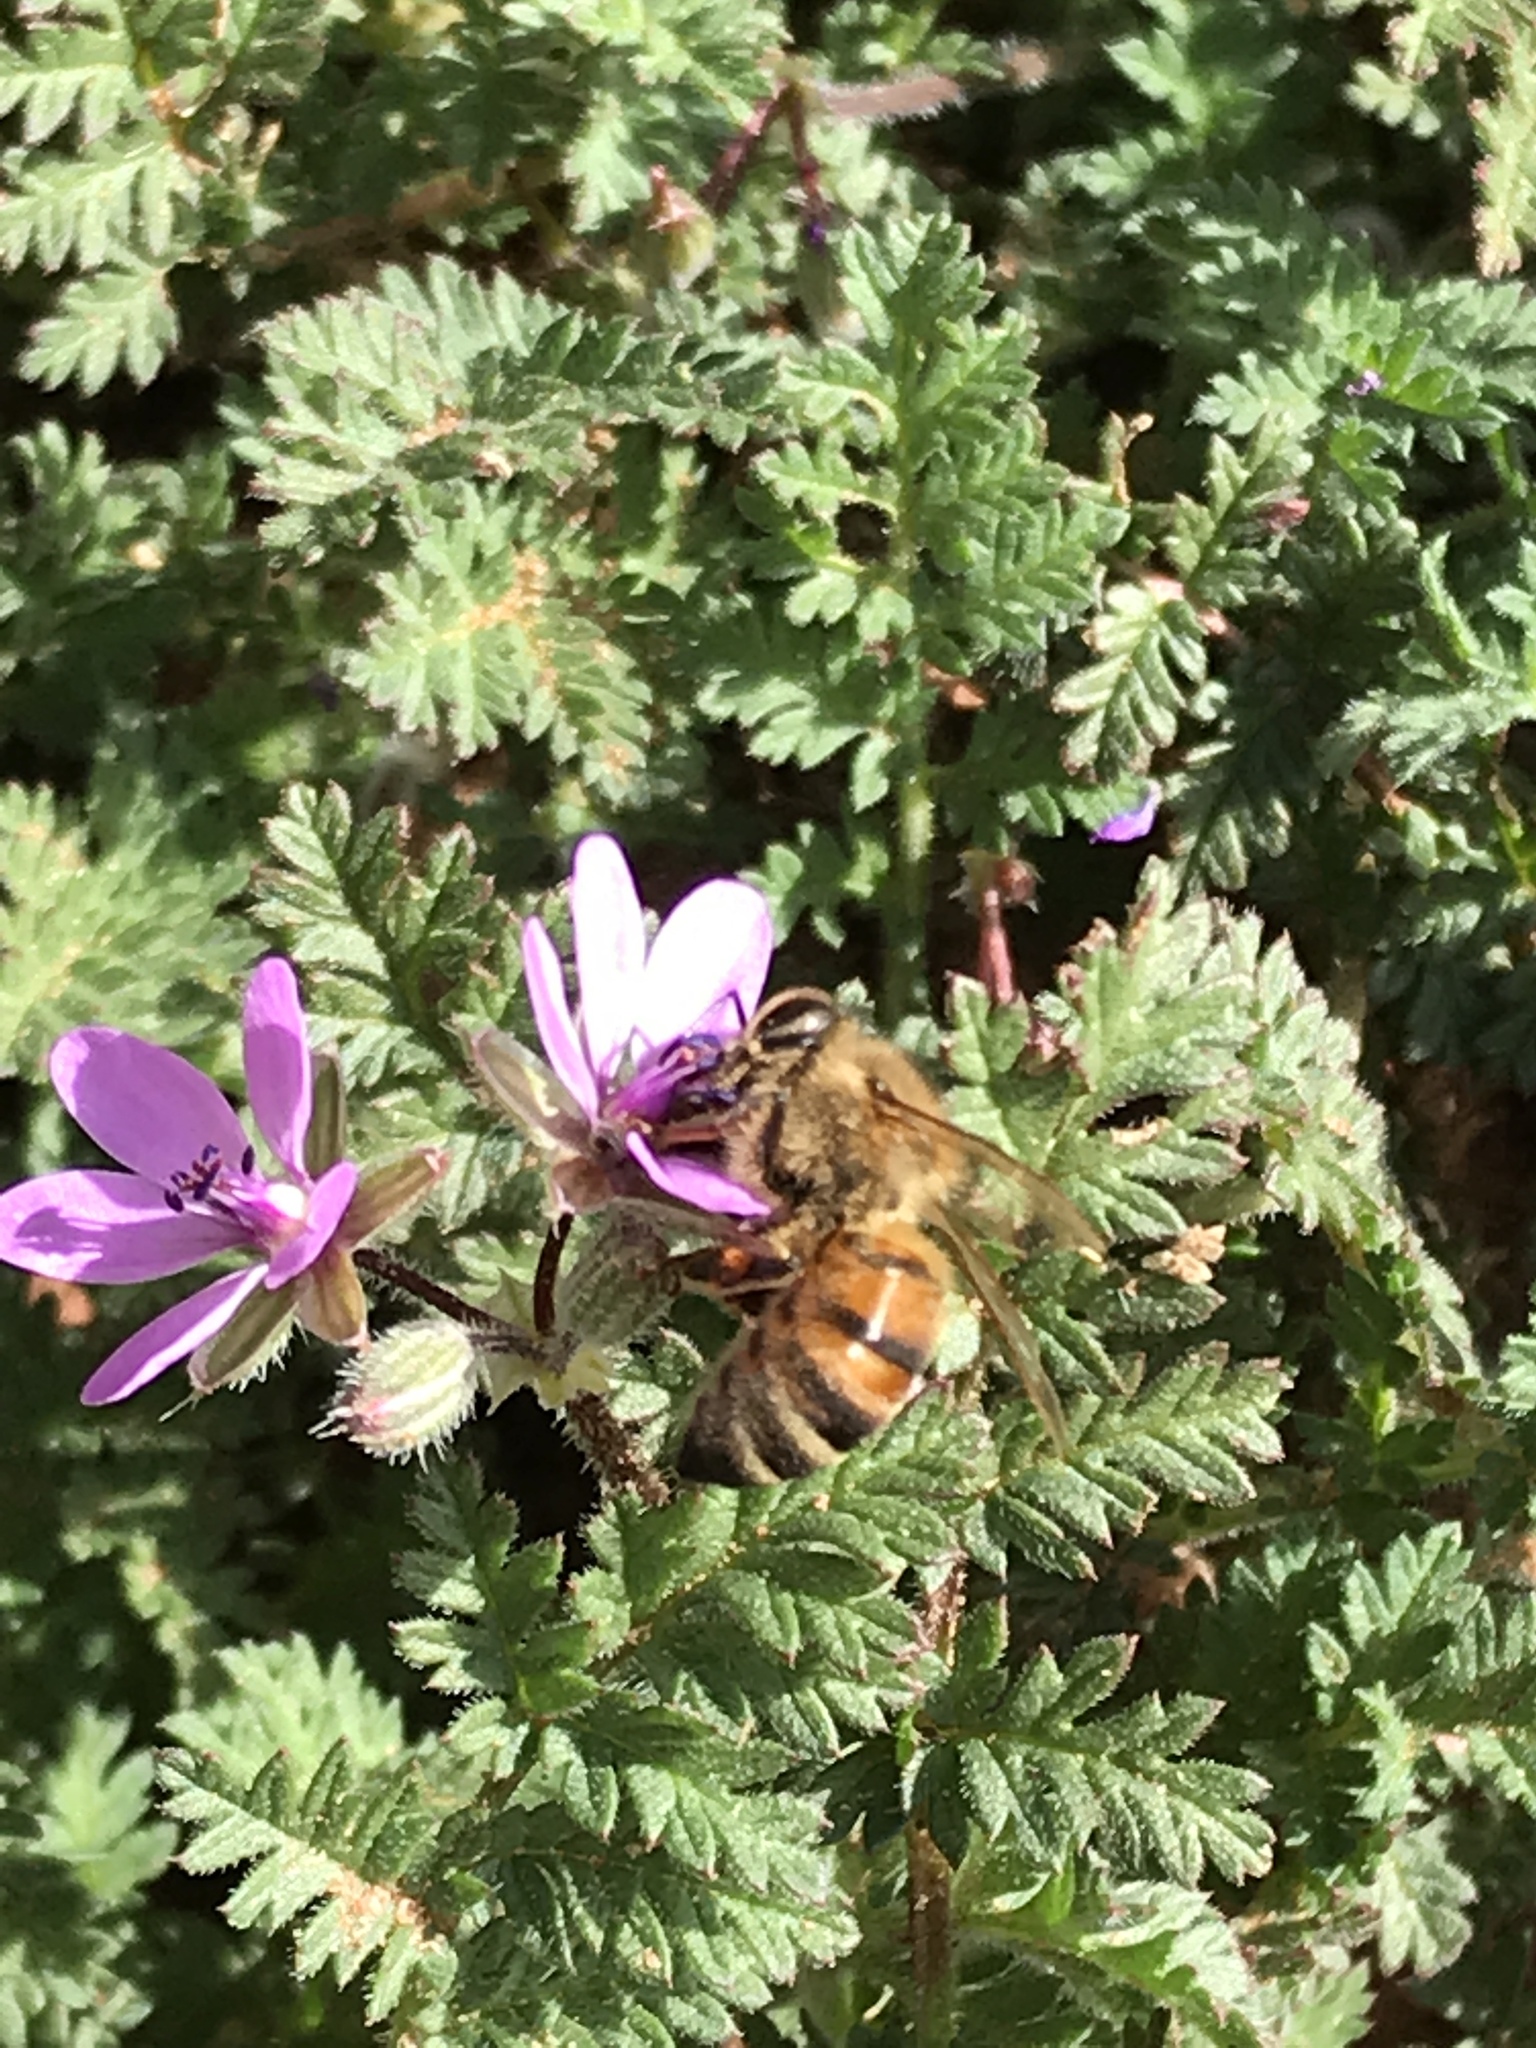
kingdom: Animalia
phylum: Arthropoda
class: Insecta
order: Hymenoptera
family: Apidae
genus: Apis
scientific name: Apis mellifera
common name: Honey bee
